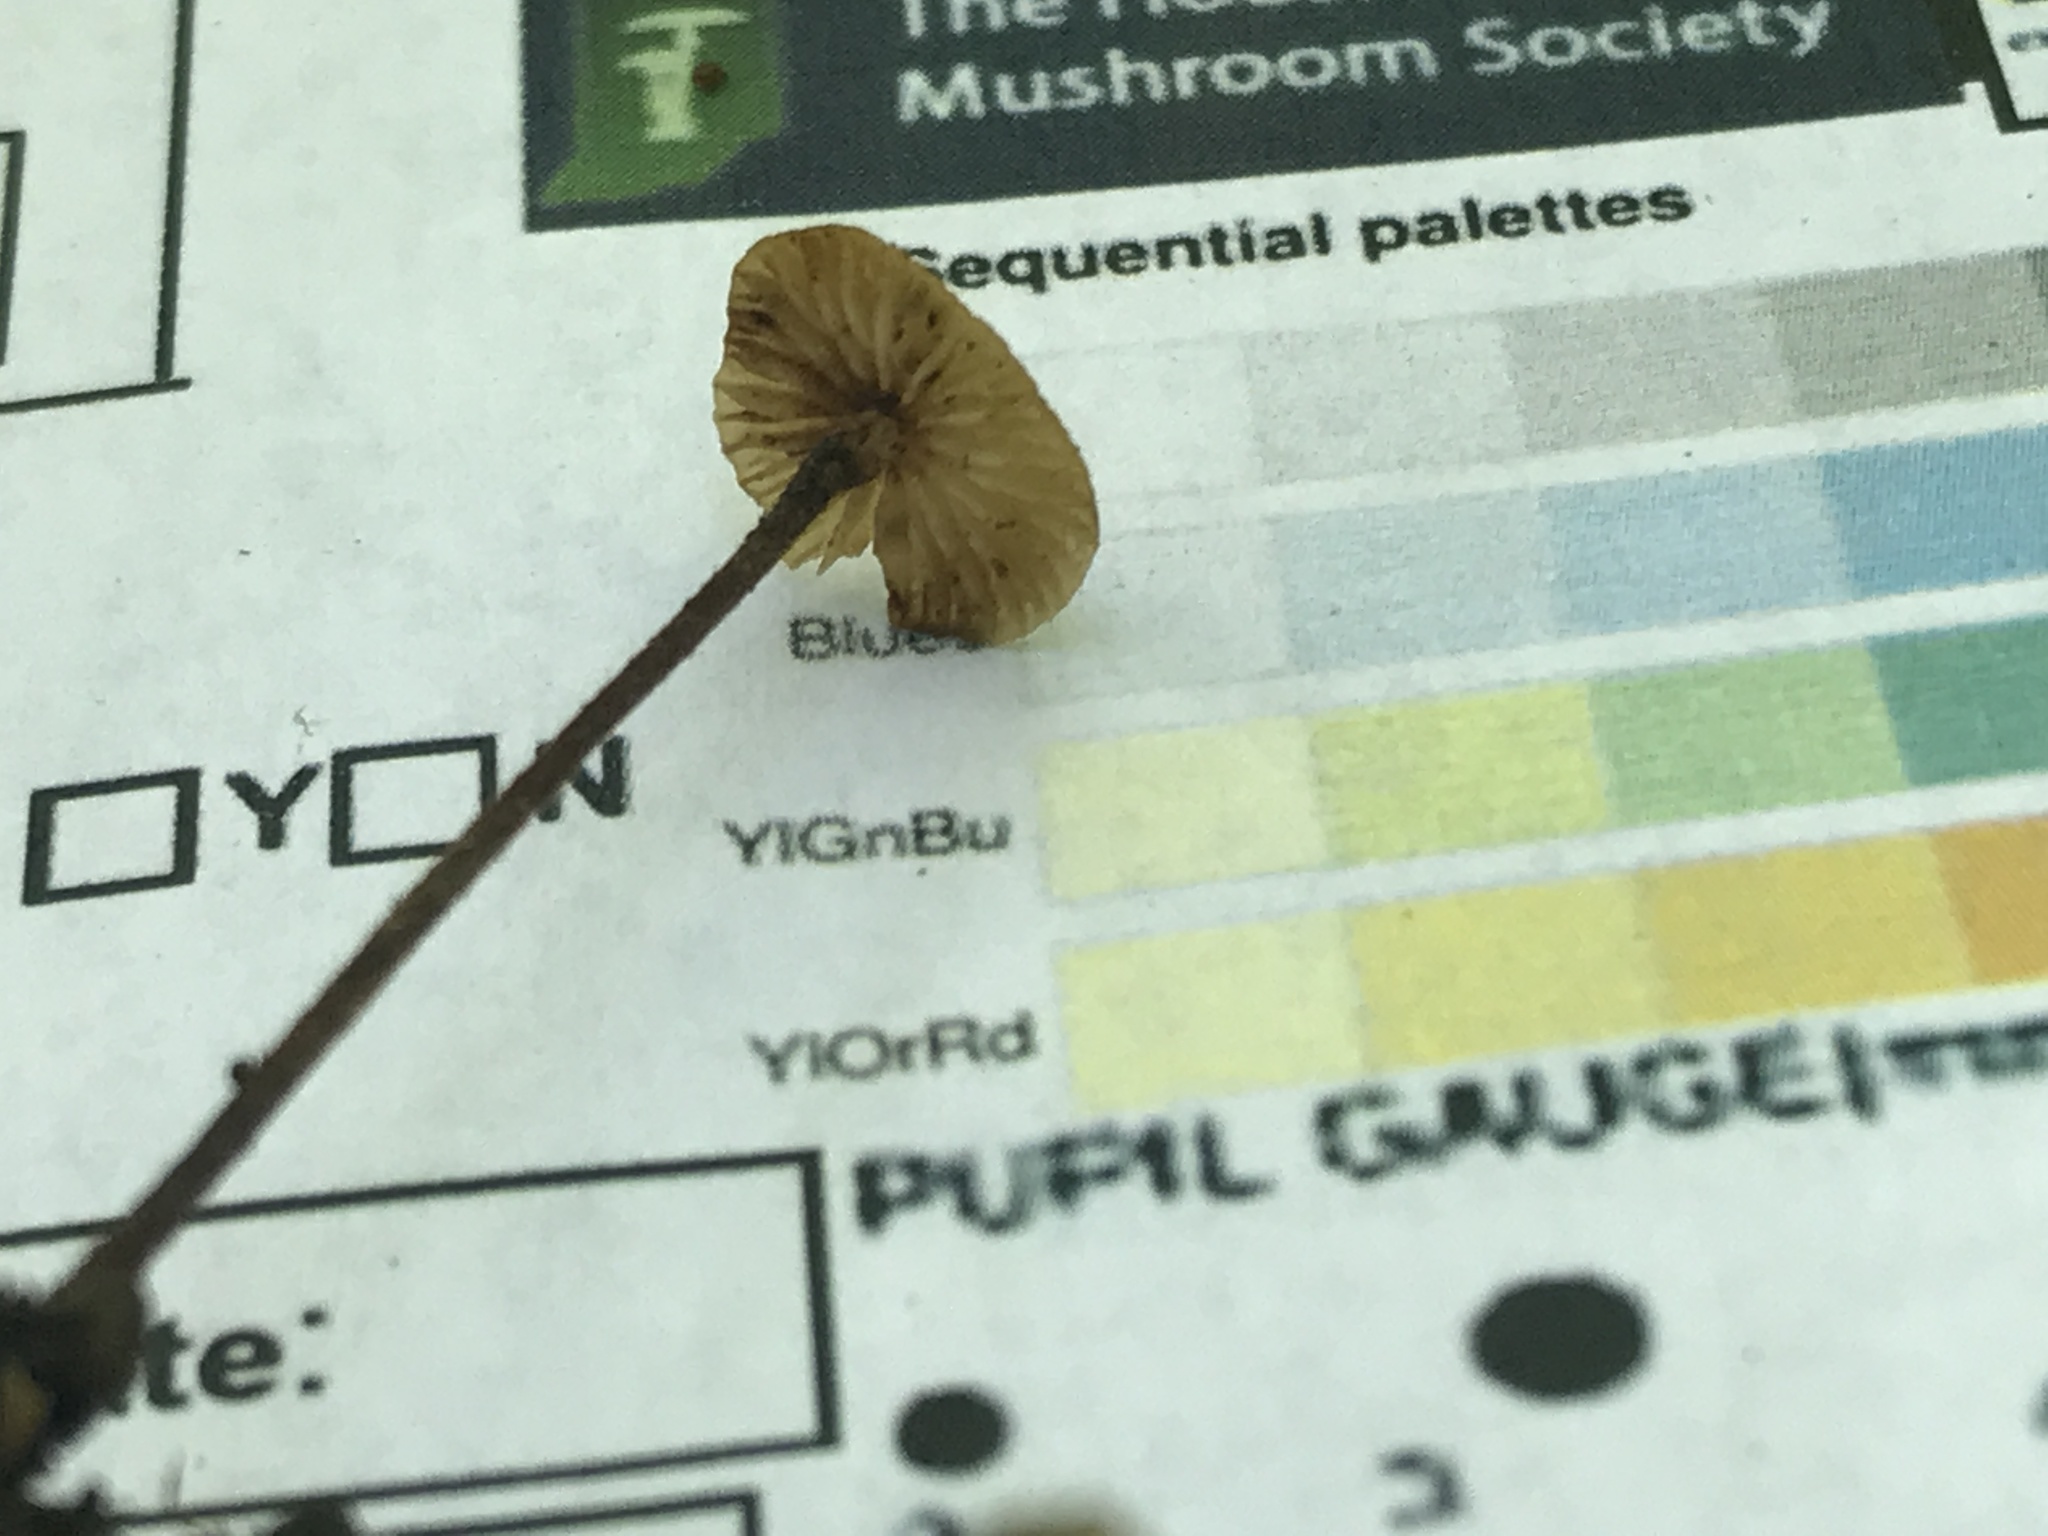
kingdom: Fungi
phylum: Basidiomycota
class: Agaricomycetes
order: Agaricales
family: Physalacriaceae
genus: Rhizomarasmius
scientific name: Rhizomarasmius pyrrhocephalus
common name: Hairy long stem marasmius
